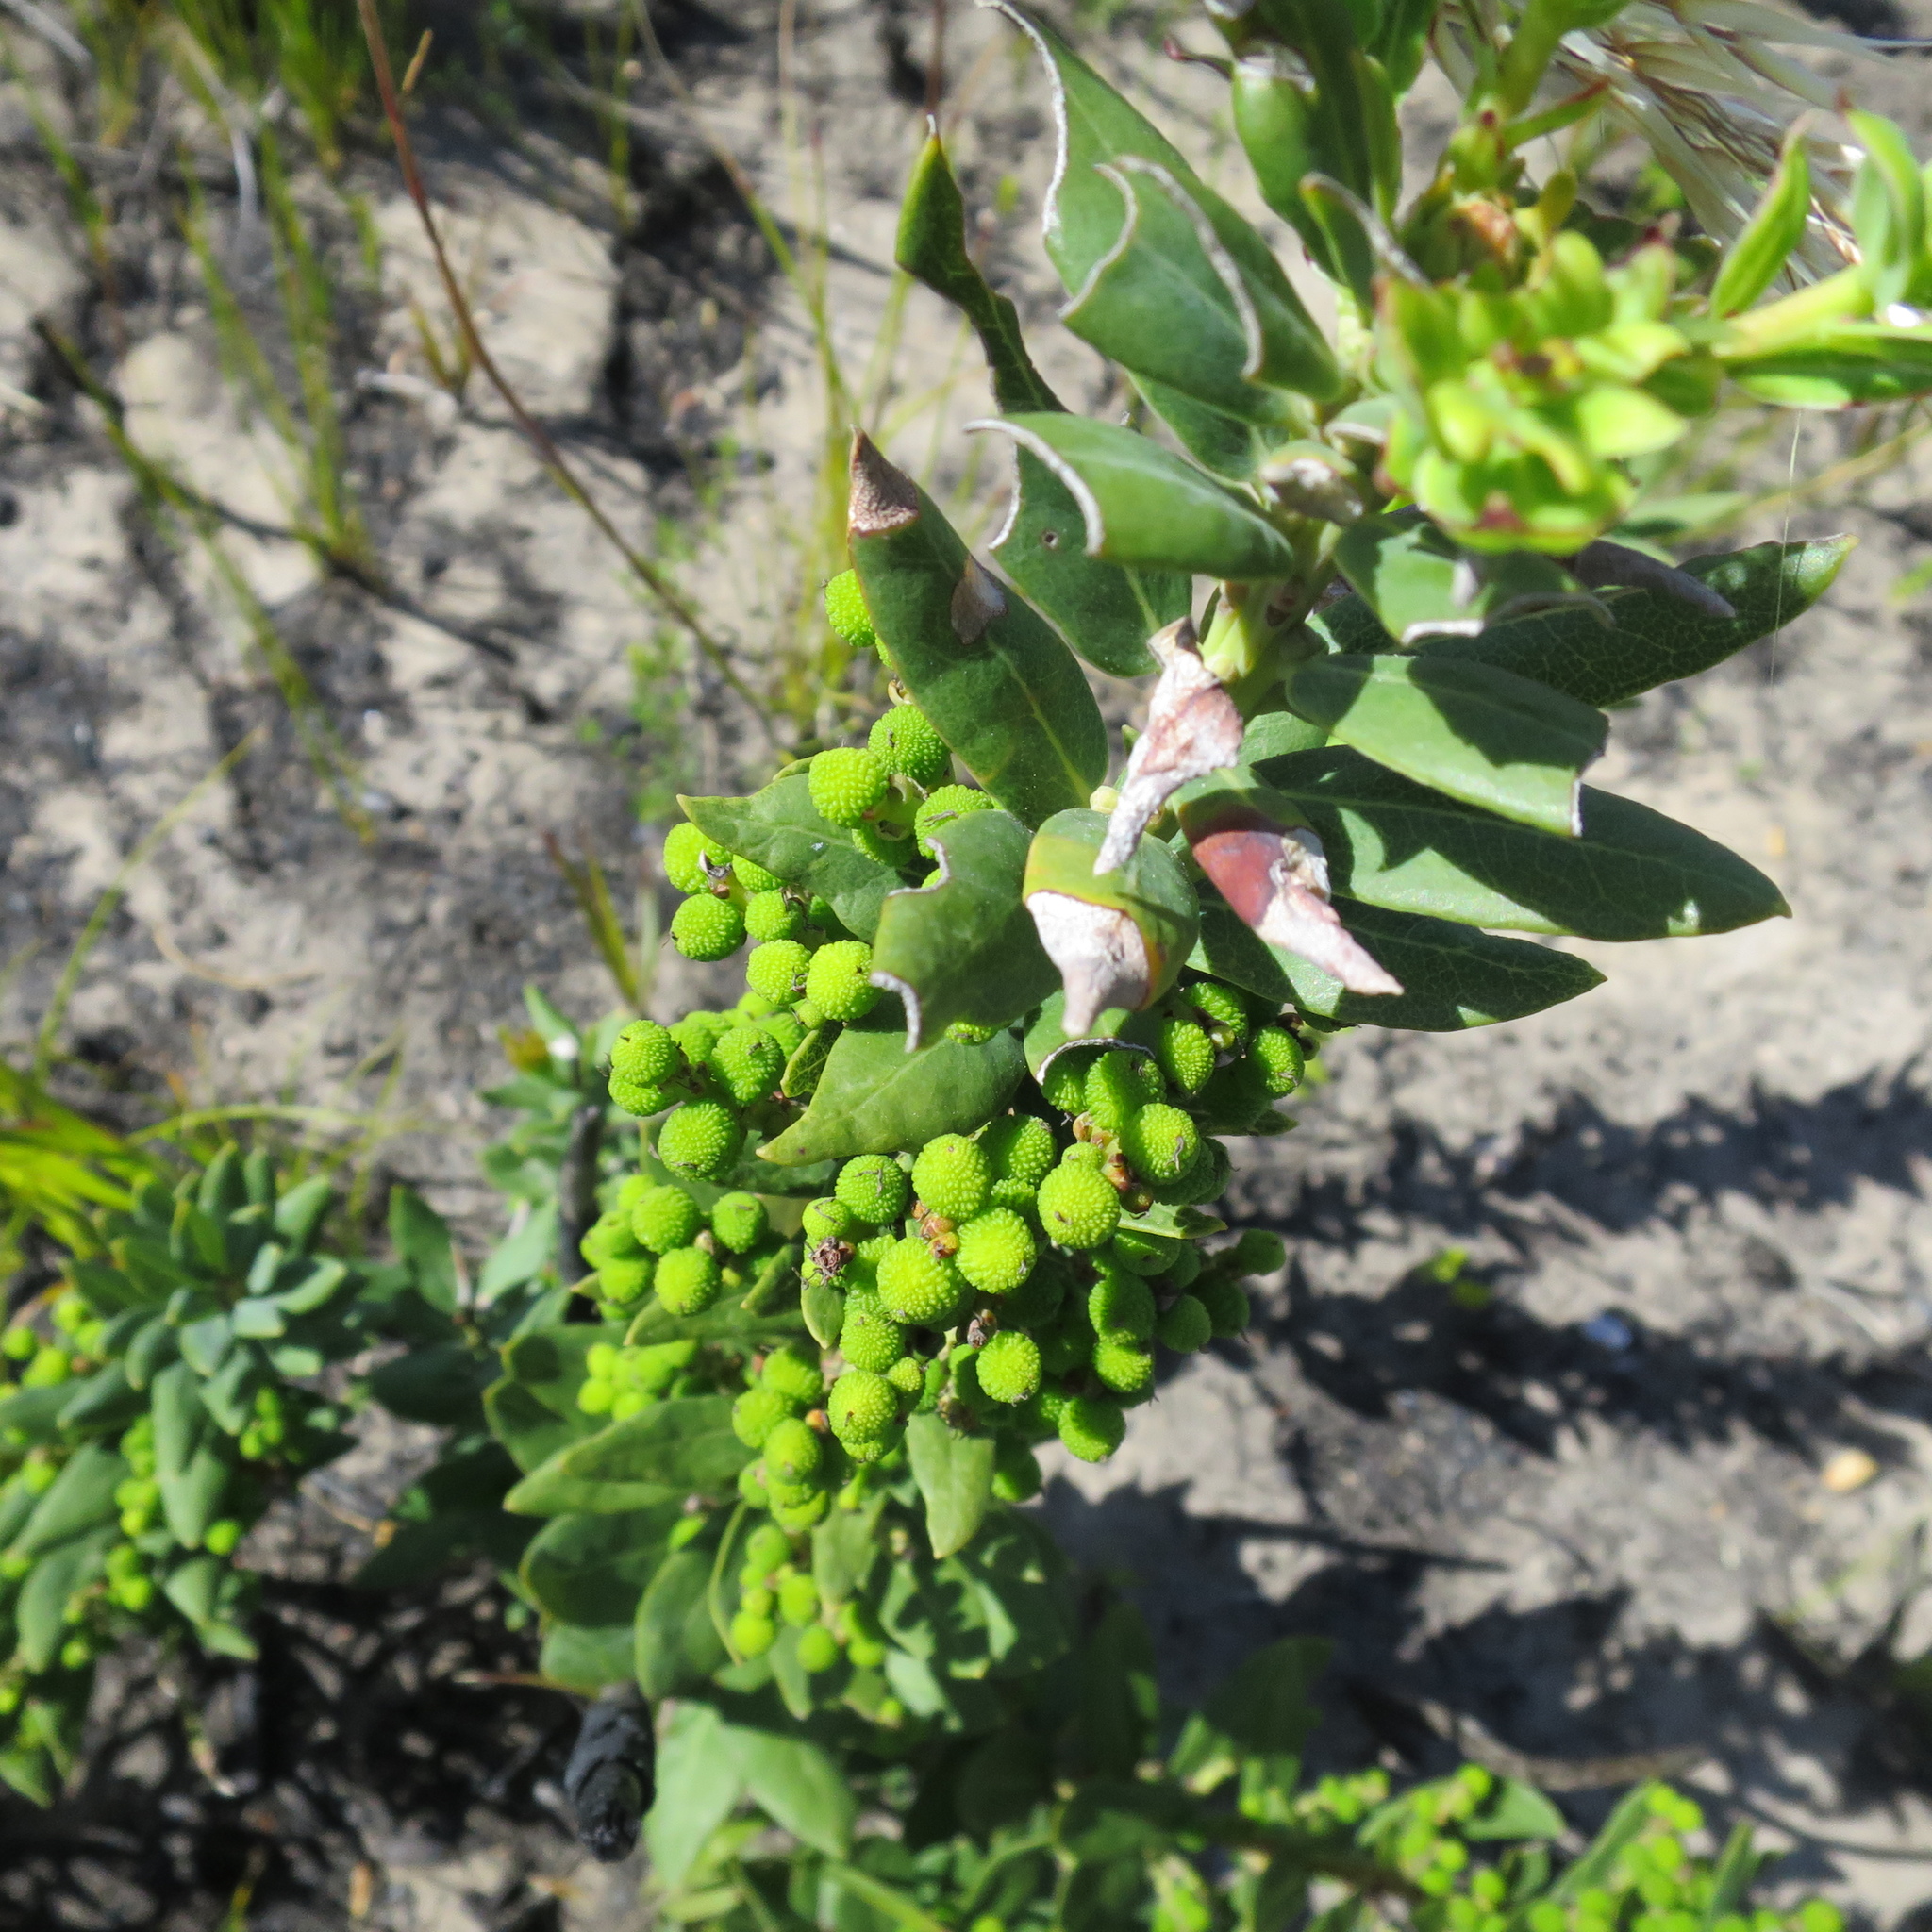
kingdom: Plantae
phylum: Tracheophyta
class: Magnoliopsida
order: Fagales
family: Myricaceae
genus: Morella
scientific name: Morella humilis
